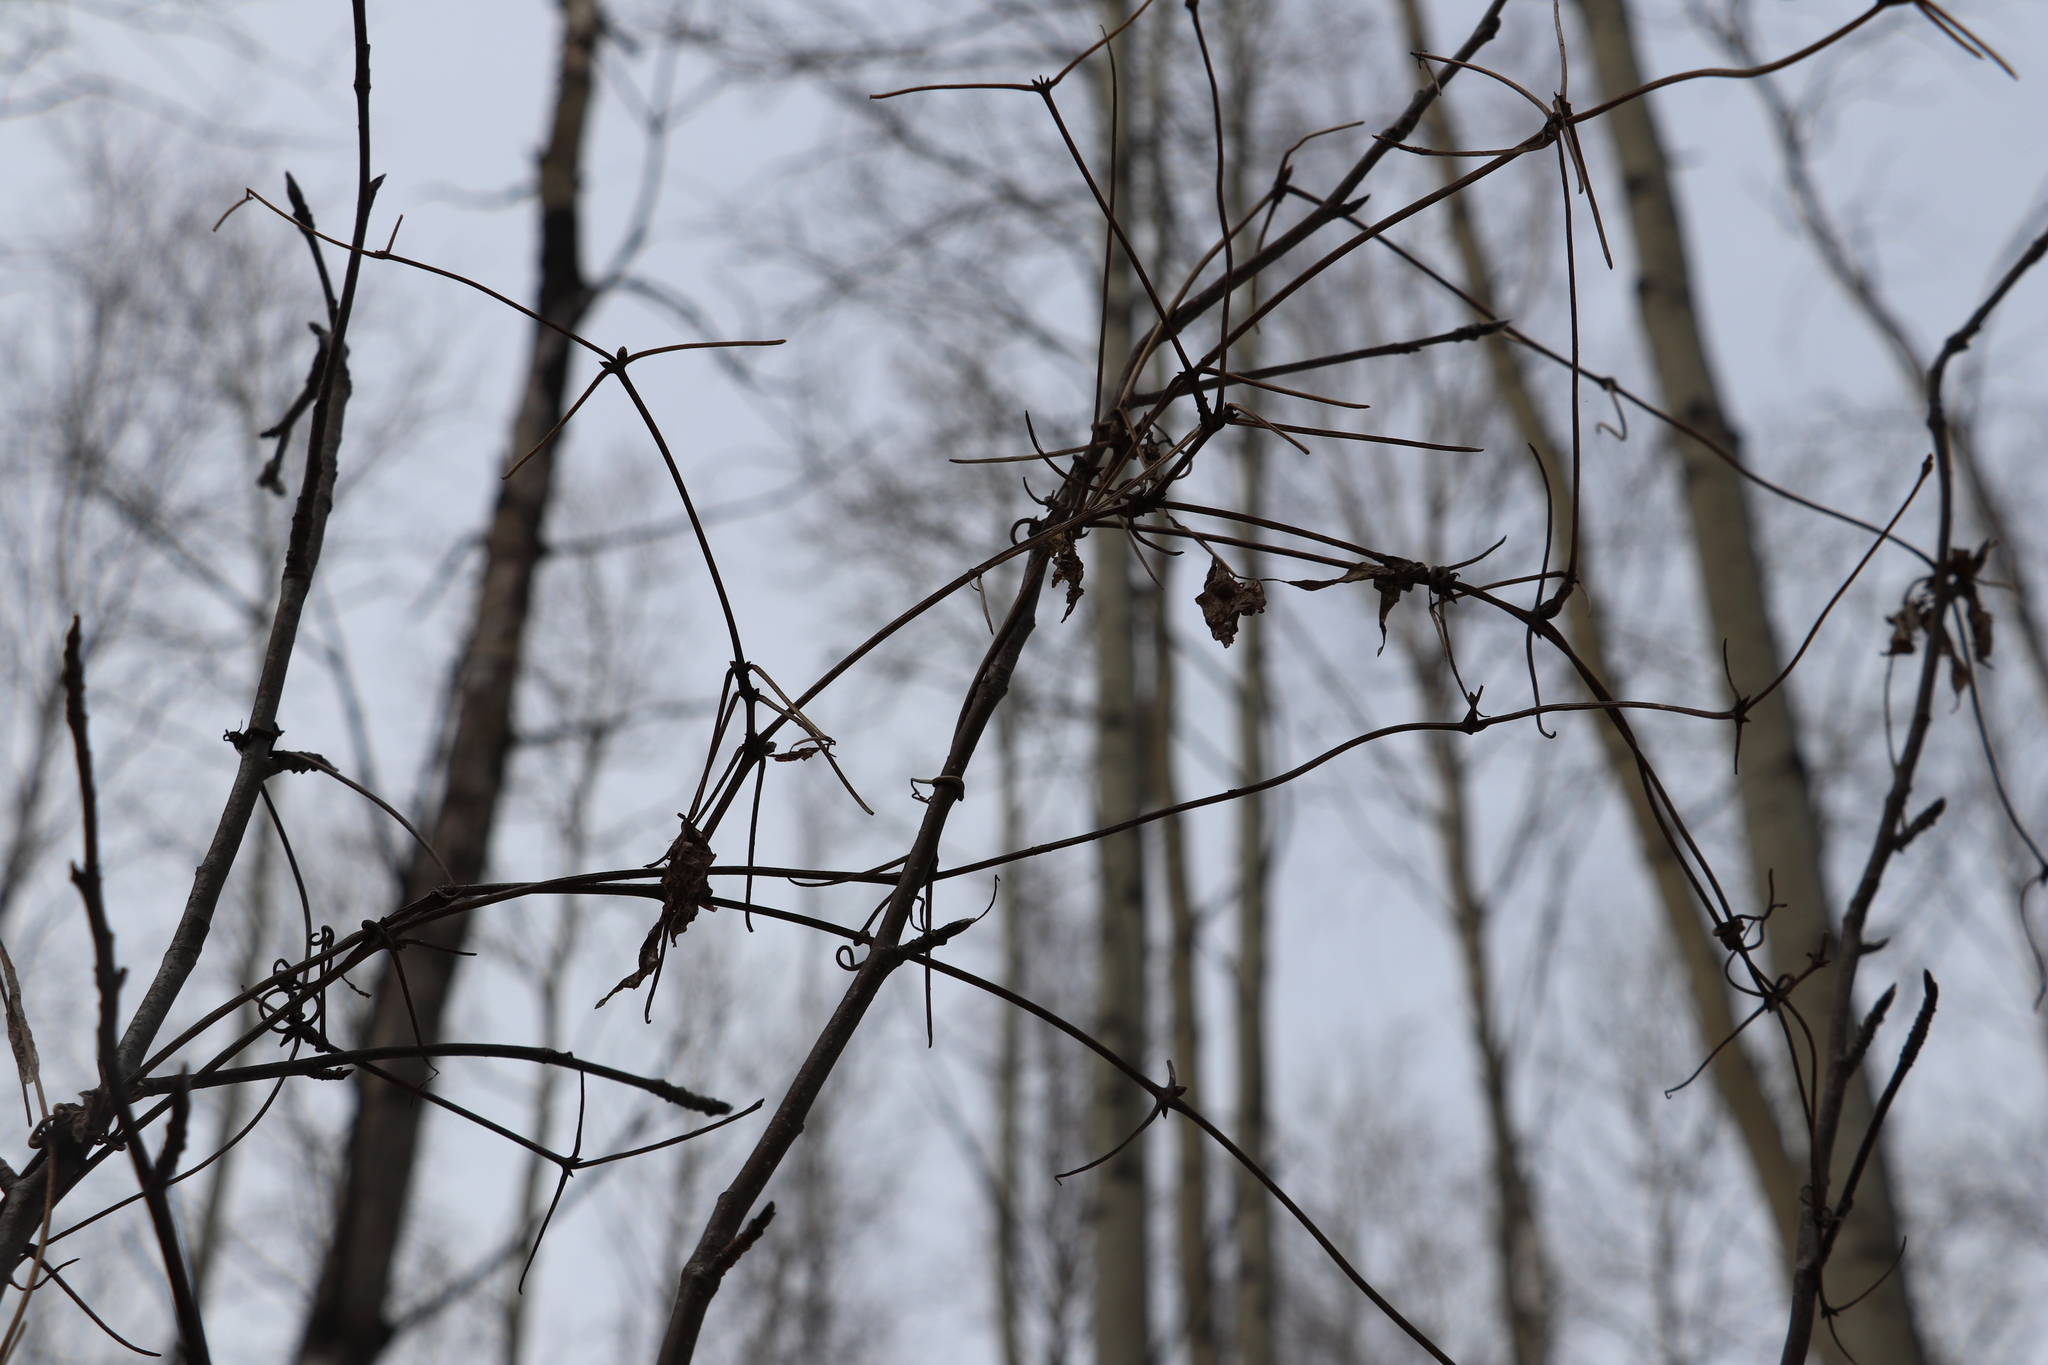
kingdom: Plantae
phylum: Tracheophyta
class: Magnoliopsida
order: Ranunculales
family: Ranunculaceae
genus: Clematis
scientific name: Clematis sibirica
